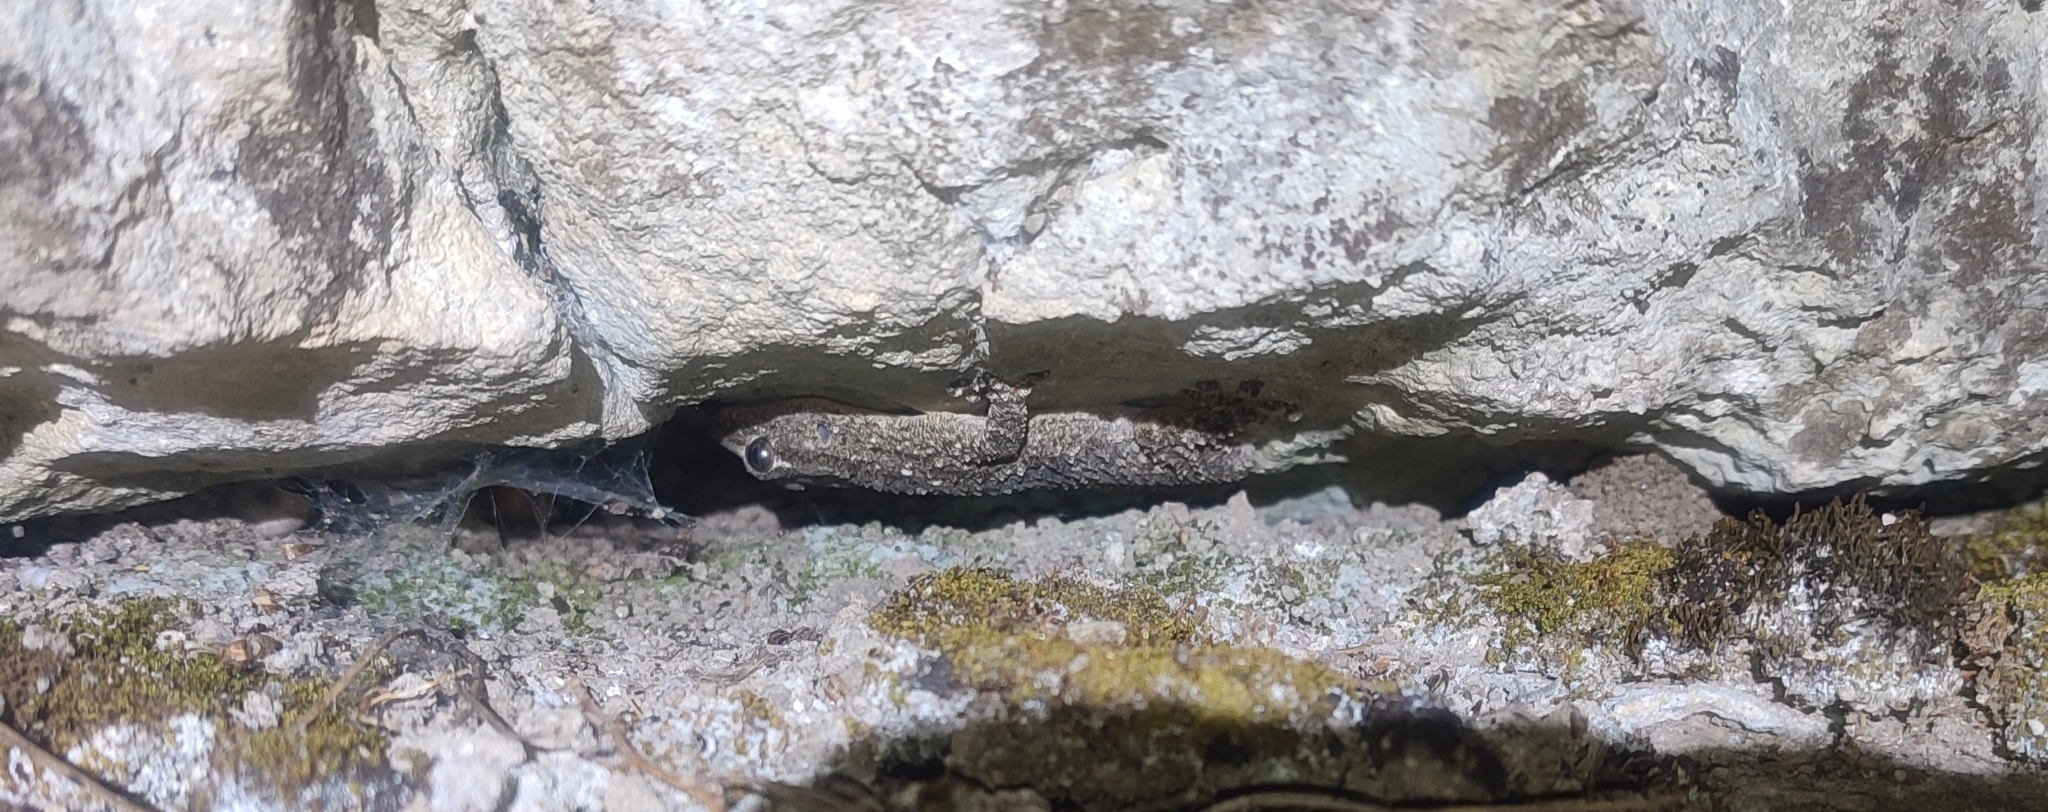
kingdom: Animalia
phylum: Chordata
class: Squamata
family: Phyllodactylidae
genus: Tarentola
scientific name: Tarentola mauritanica
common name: Moorish gecko
